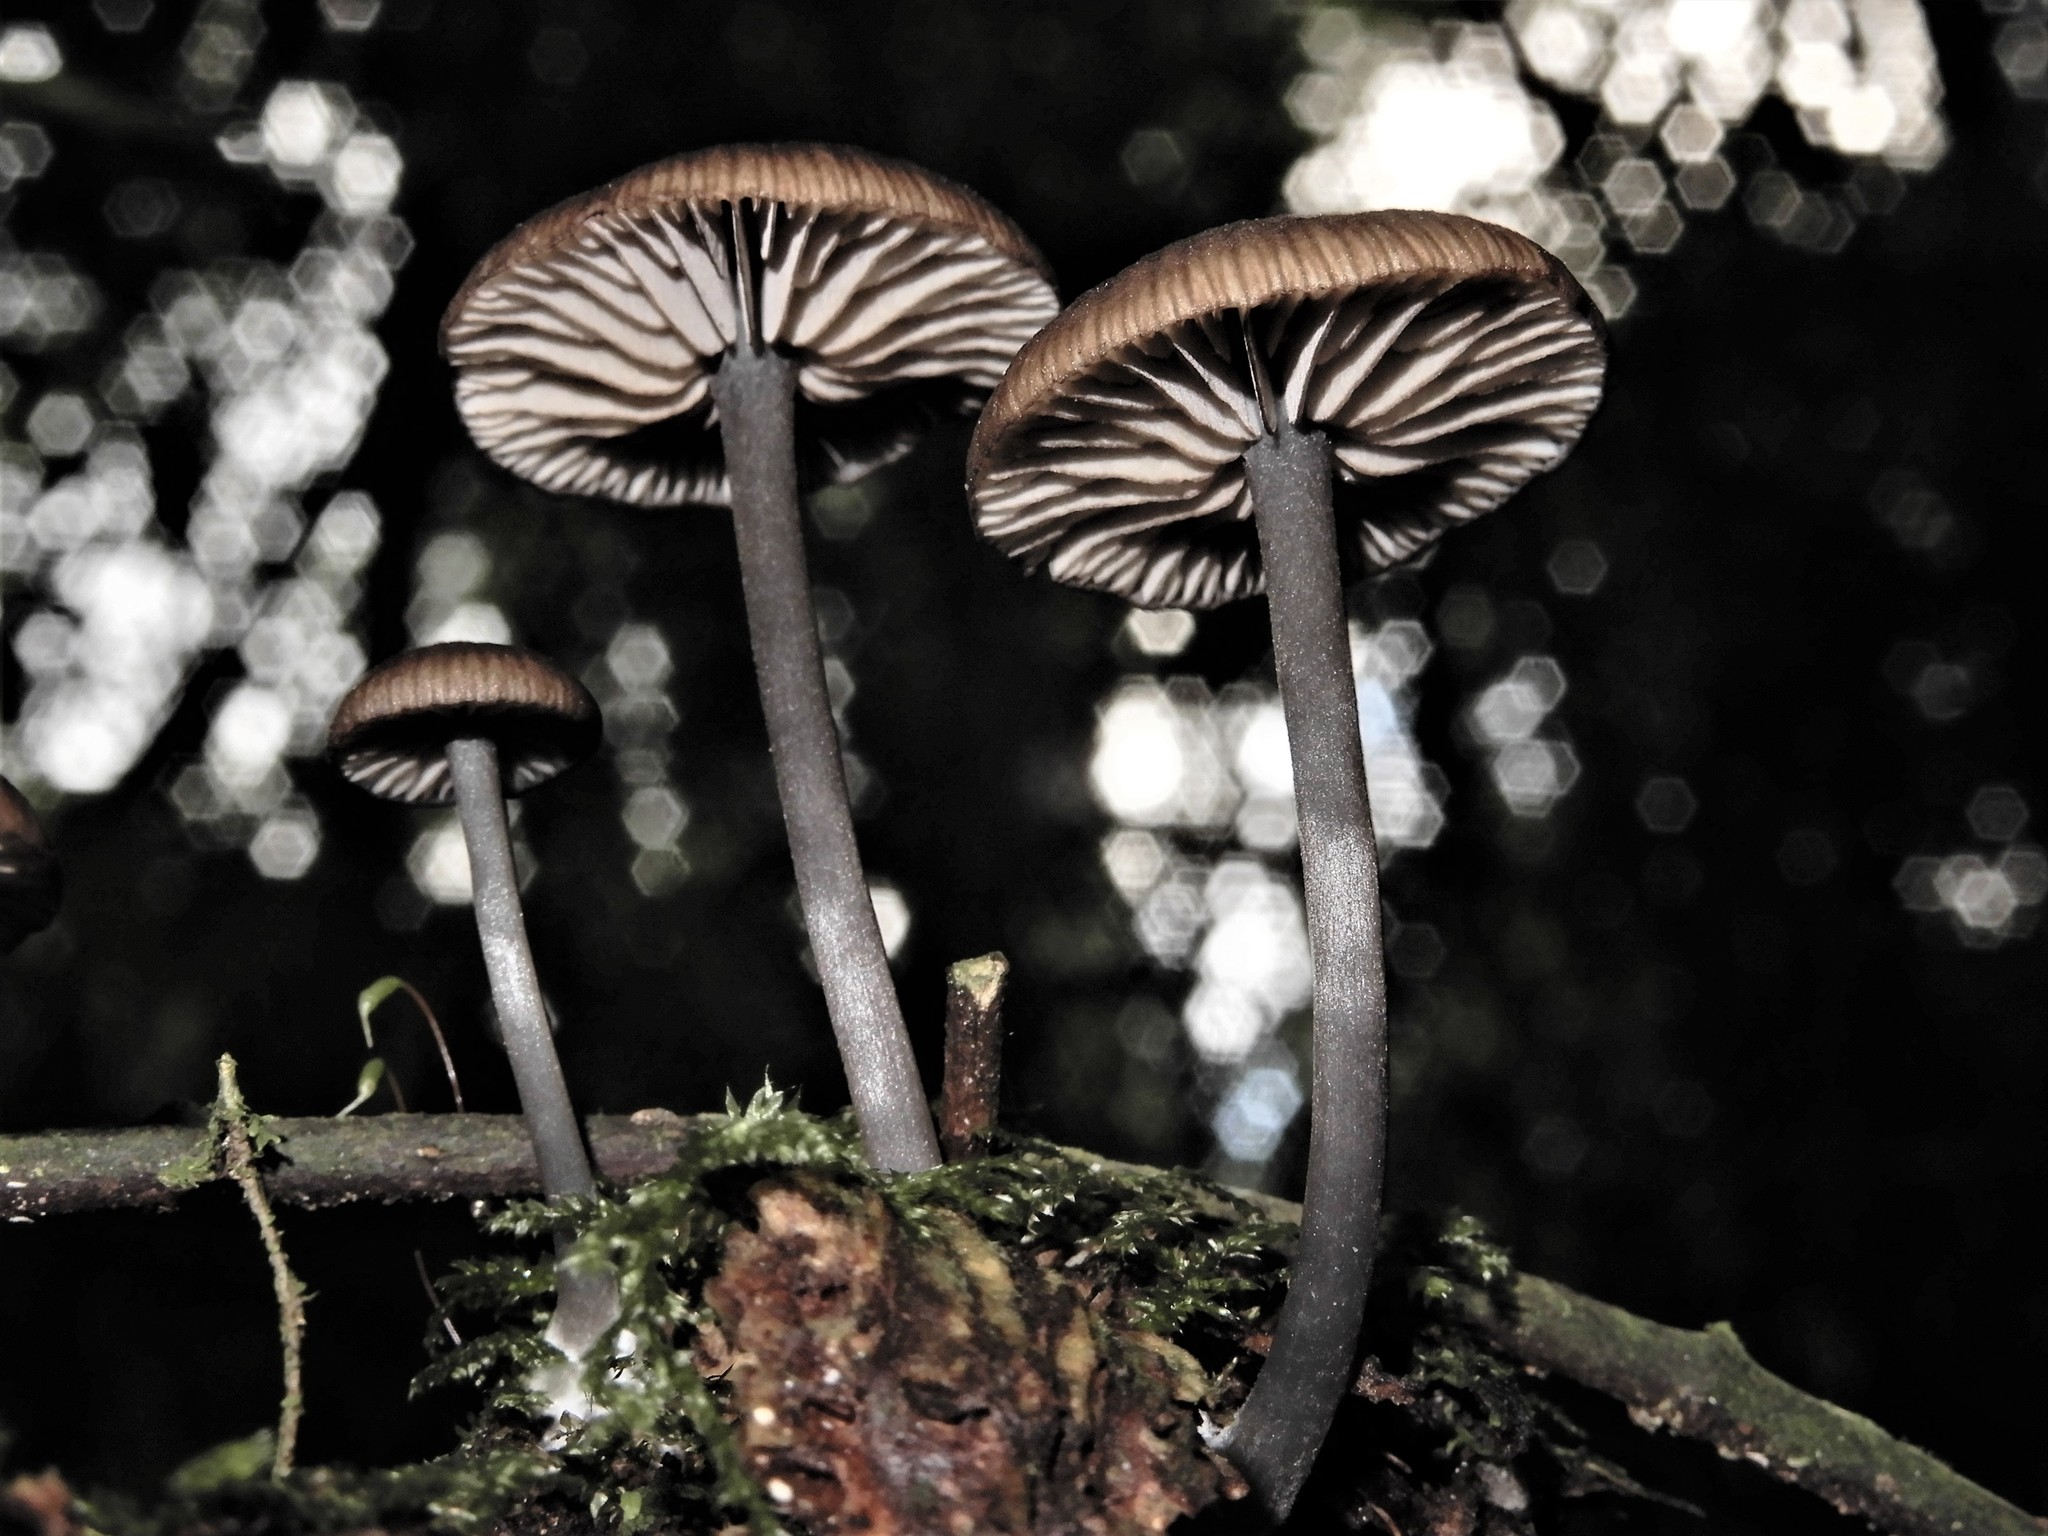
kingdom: Fungi
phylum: Basidiomycota
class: Agaricomycetes
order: Agaricales
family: Entolomataceae
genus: Entoloma
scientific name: Entoloma melanocephalum
